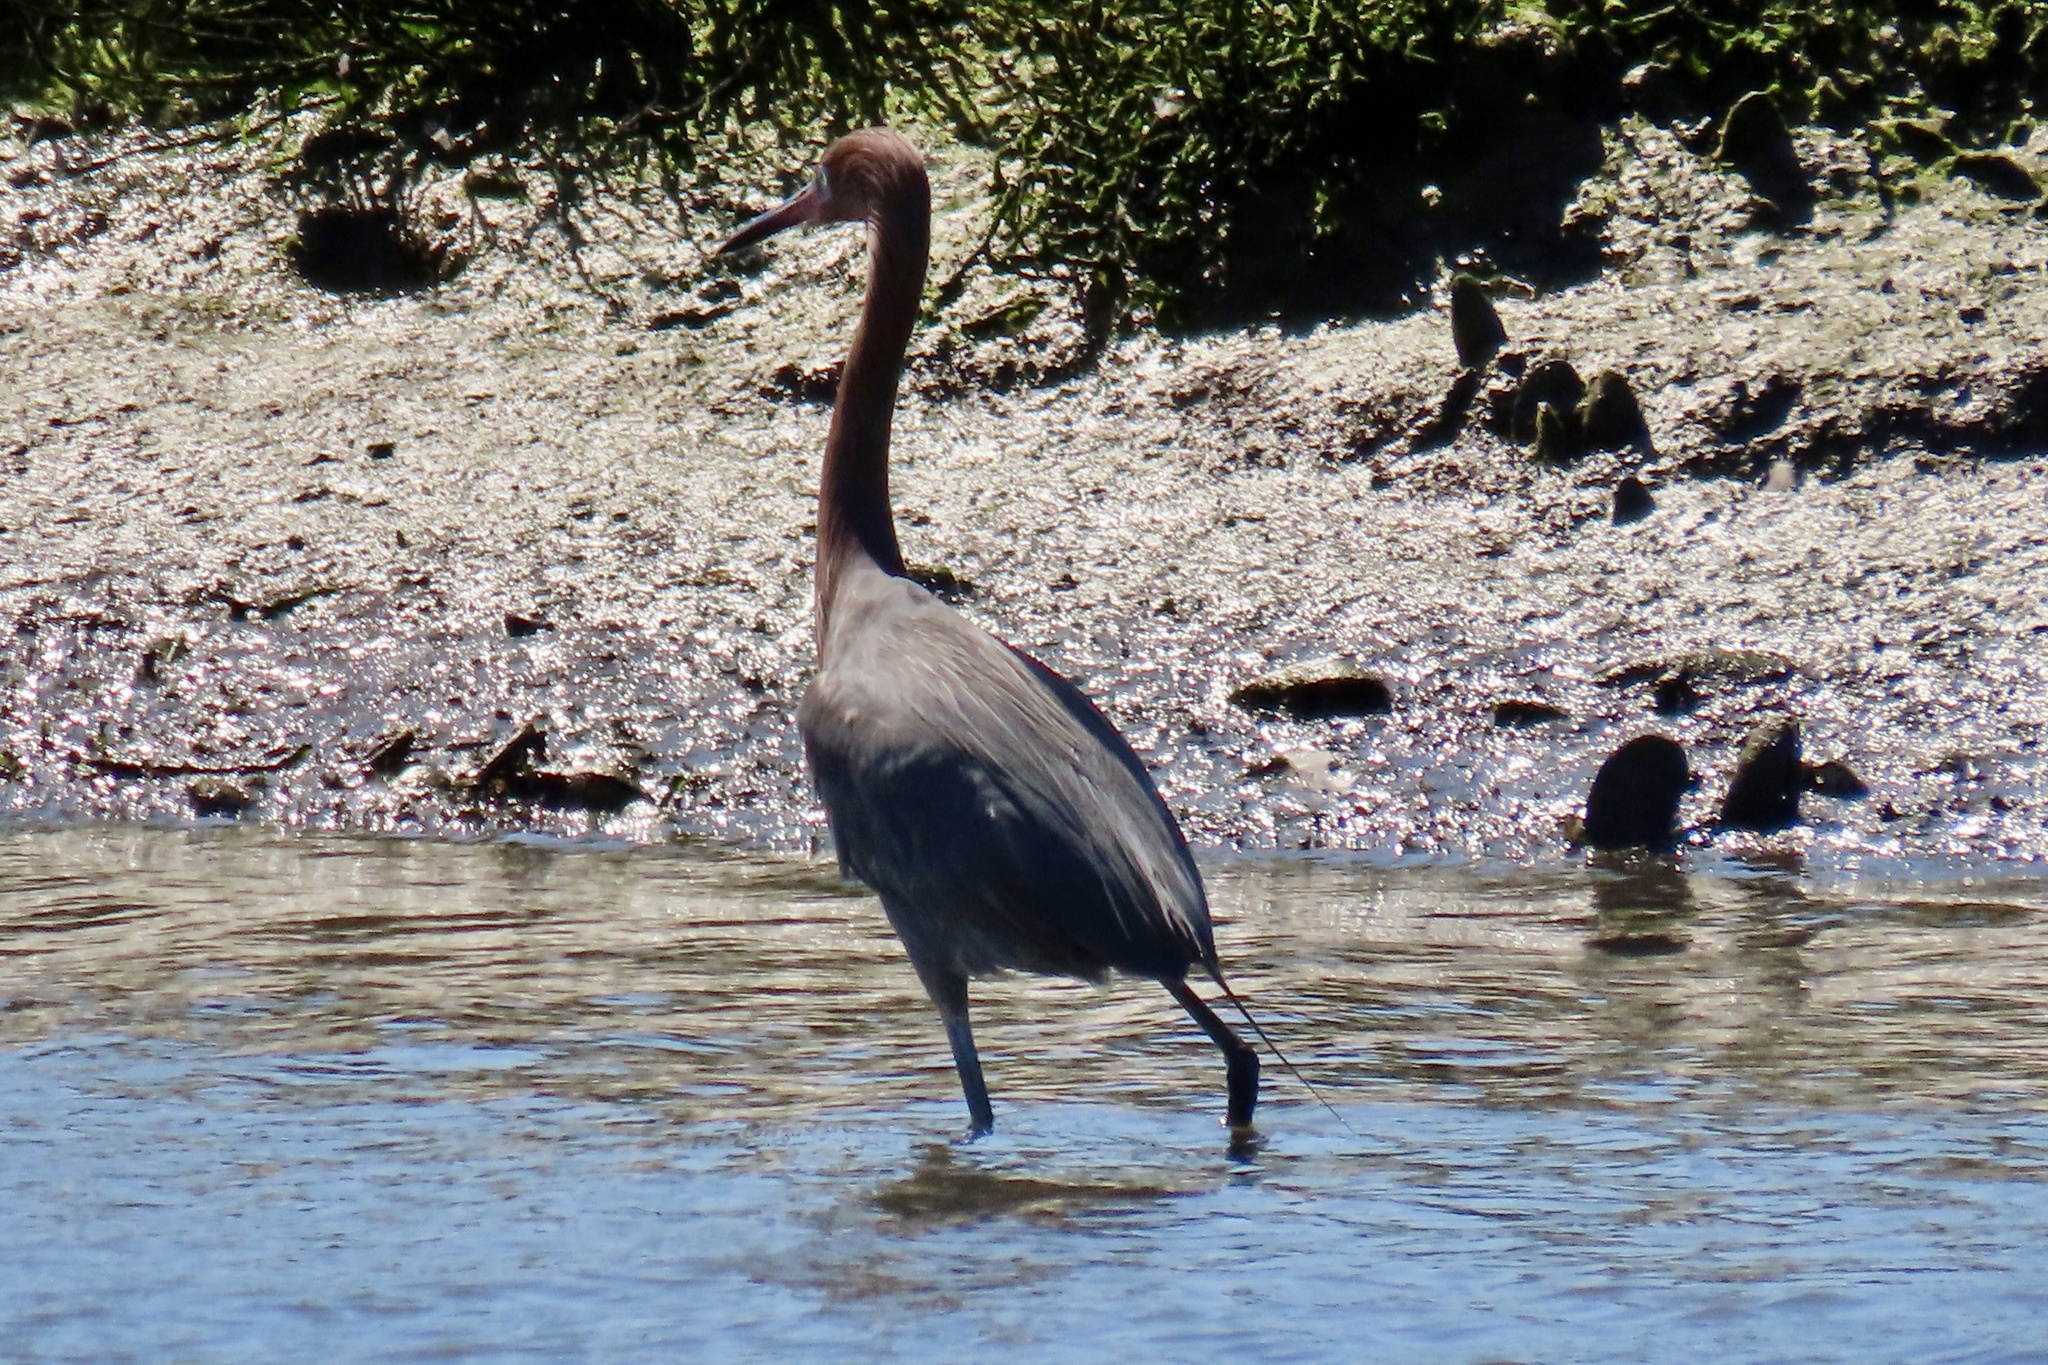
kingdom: Animalia
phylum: Chordata
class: Aves
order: Pelecaniformes
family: Ardeidae
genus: Egretta
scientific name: Egretta rufescens
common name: Reddish egret
